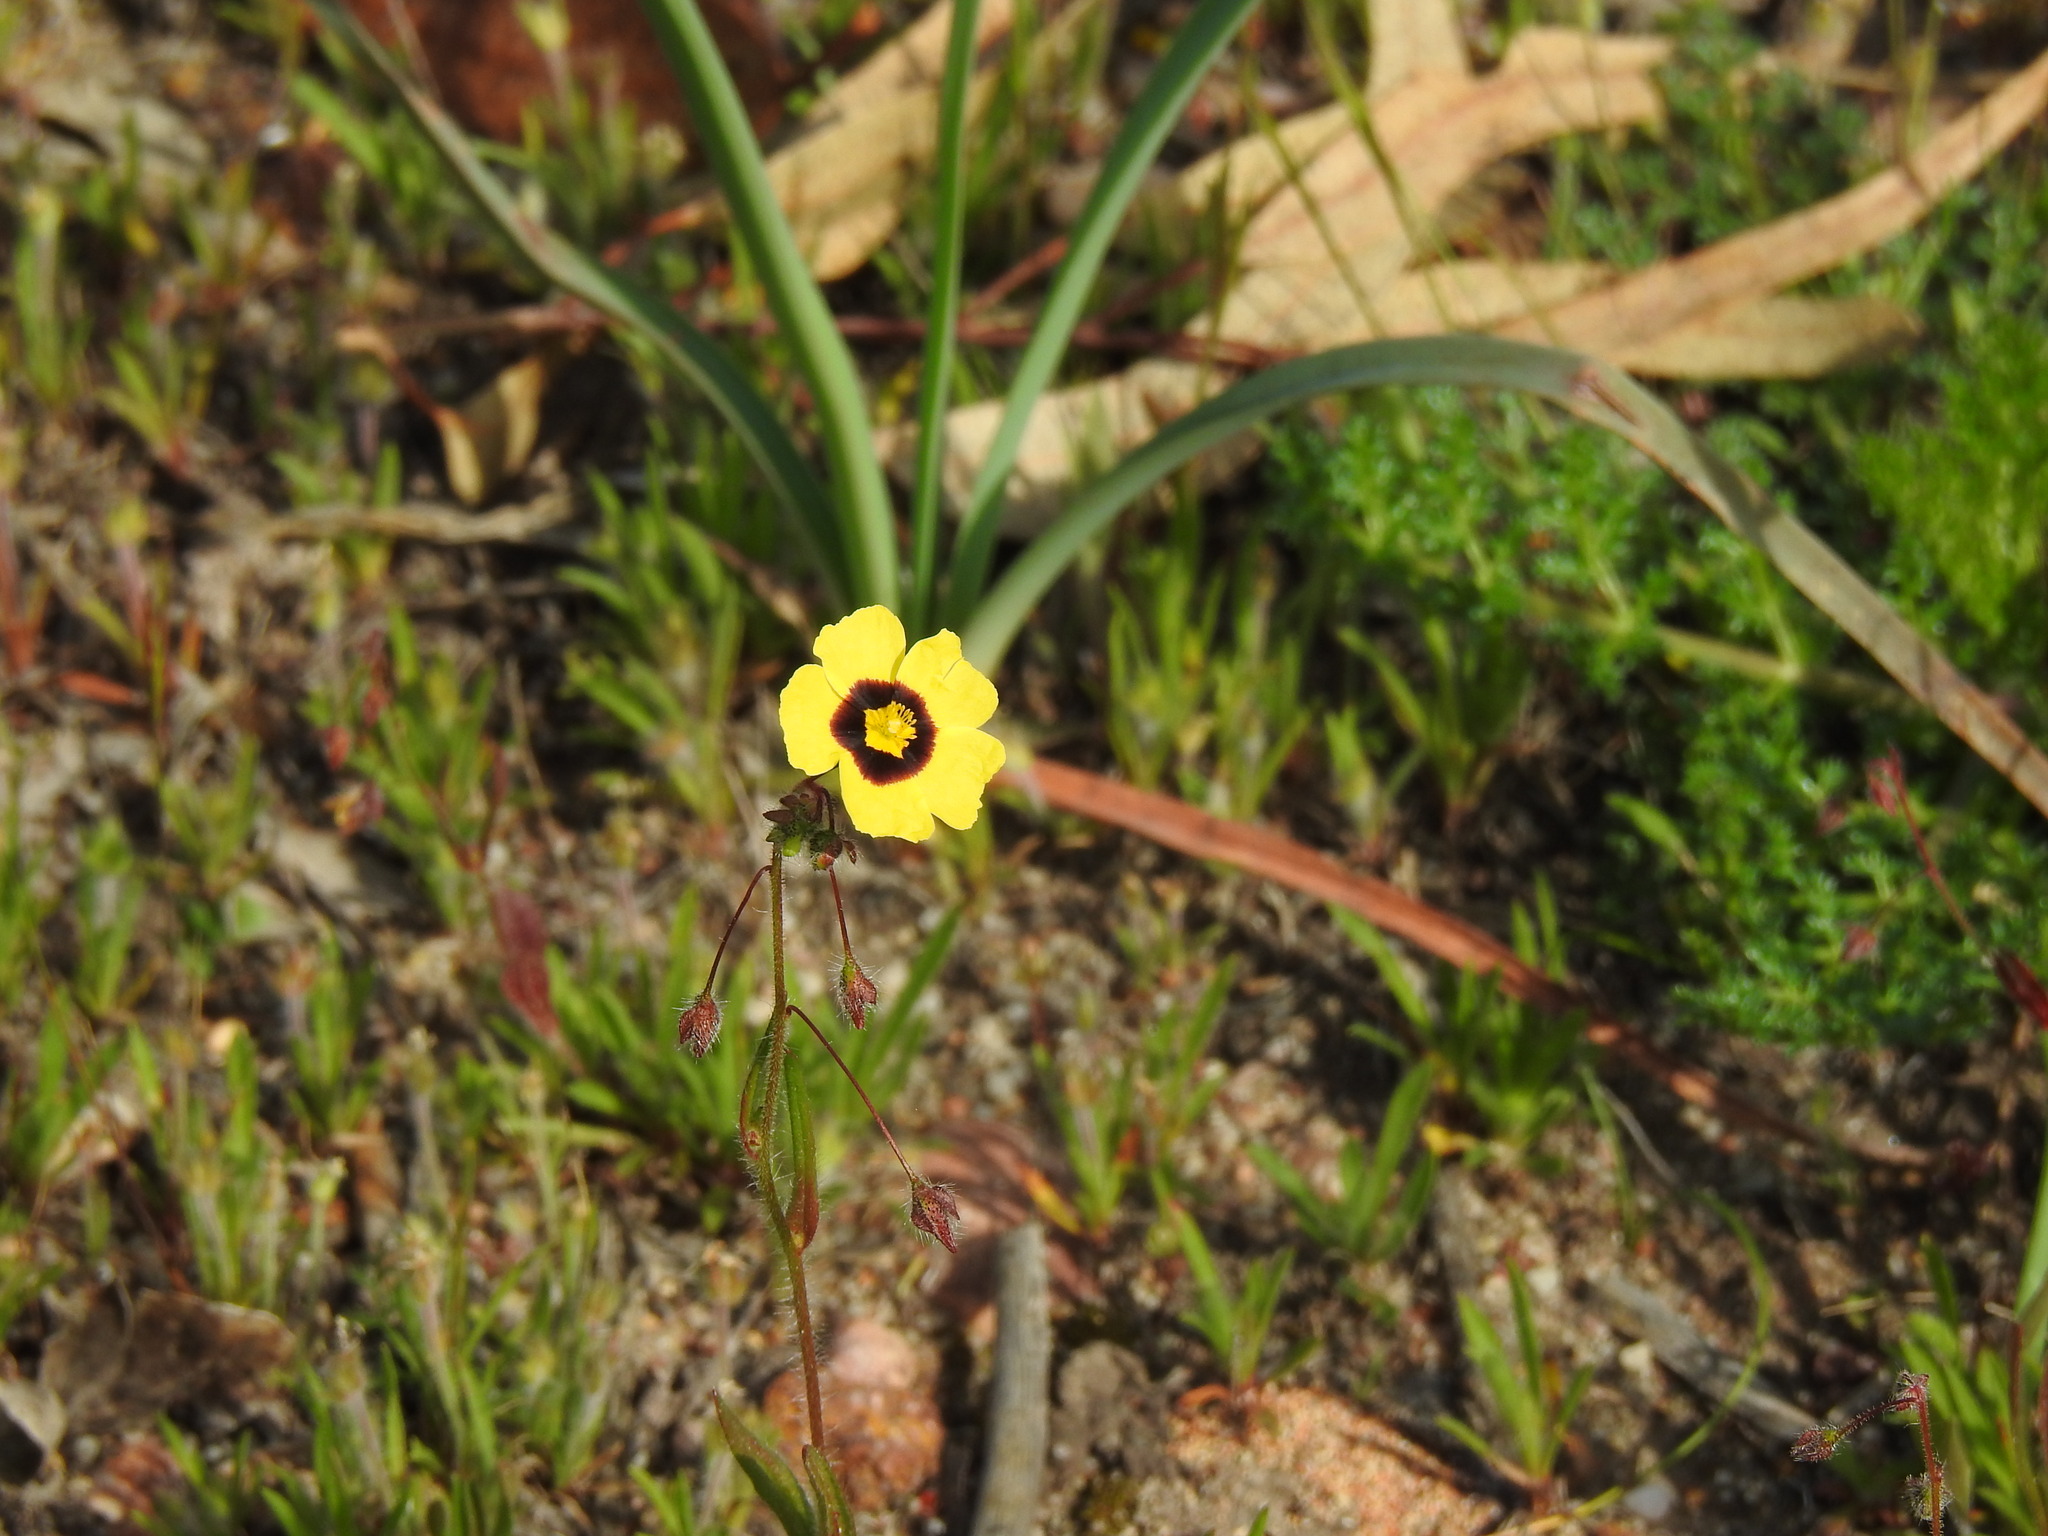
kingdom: Plantae
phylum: Tracheophyta
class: Magnoliopsida
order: Malvales
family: Cistaceae
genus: Tuberaria
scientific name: Tuberaria guttata
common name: Spotted rock-rose
